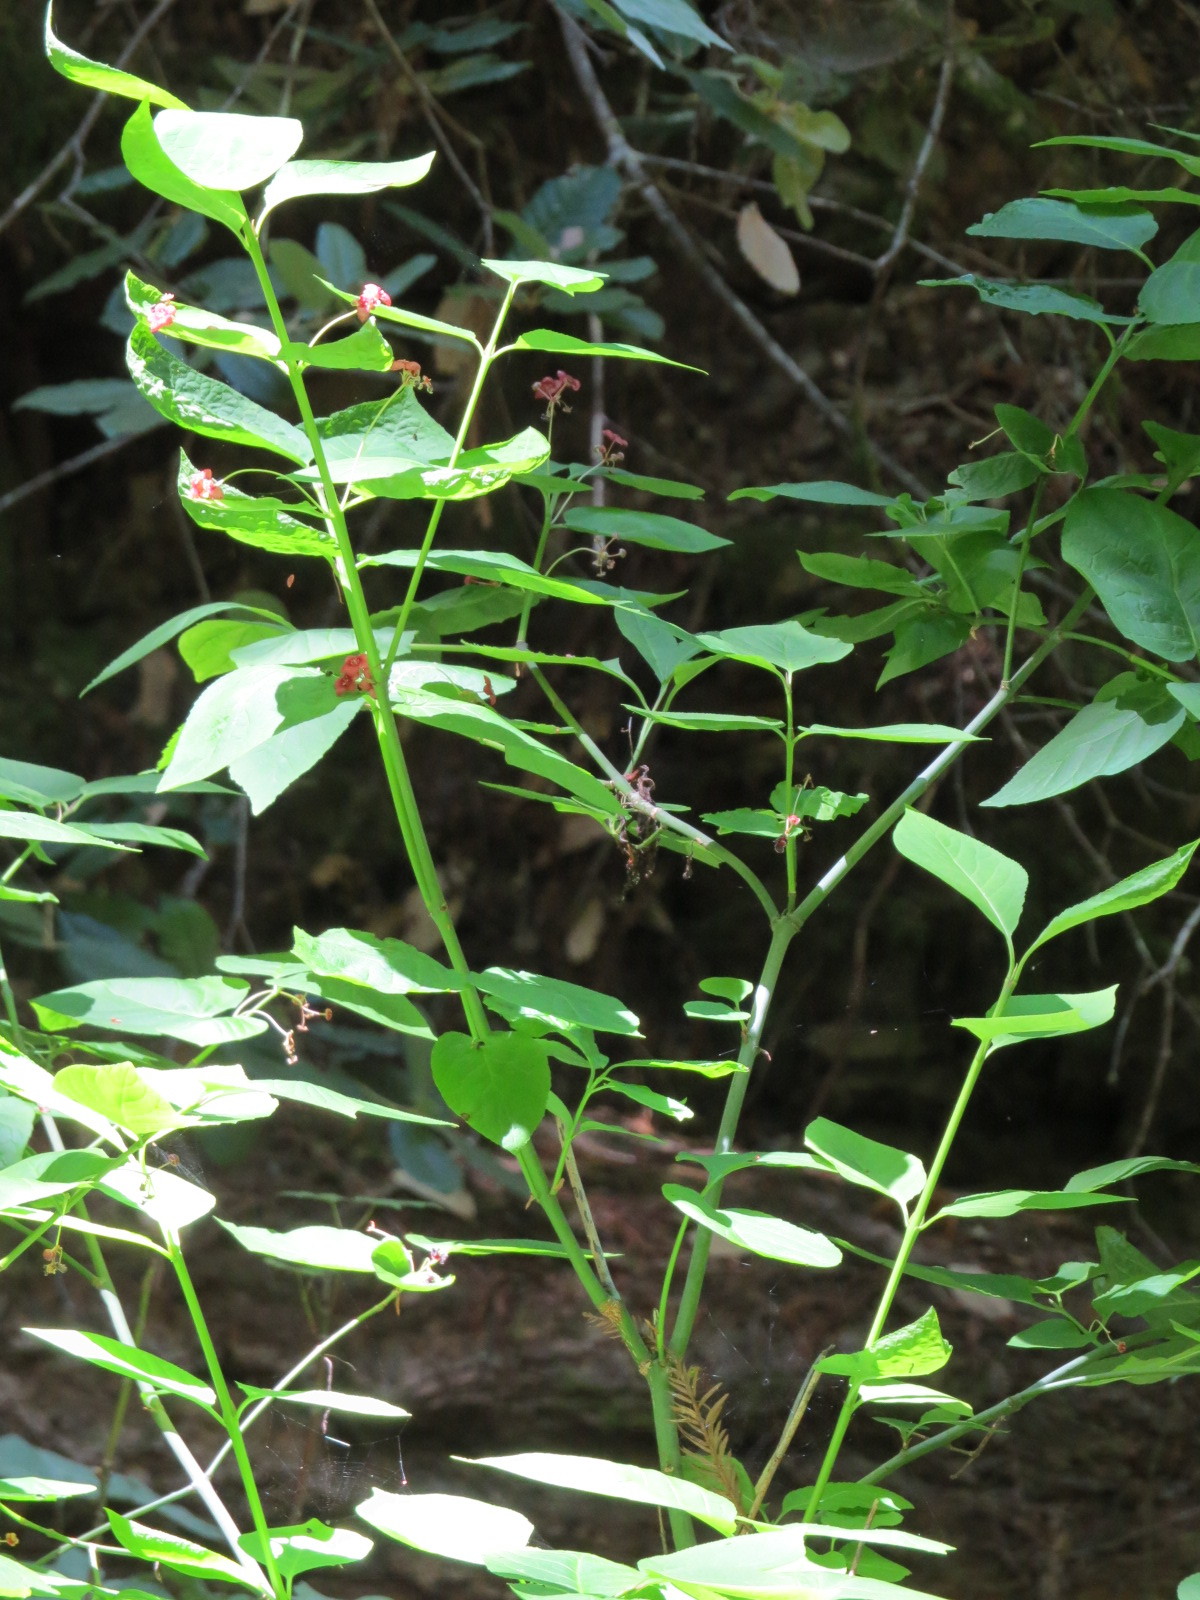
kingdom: Plantae
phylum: Tracheophyta
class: Magnoliopsida
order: Celastrales
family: Celastraceae
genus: Euonymus
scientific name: Euonymus occidentalis
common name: Western burningbush
